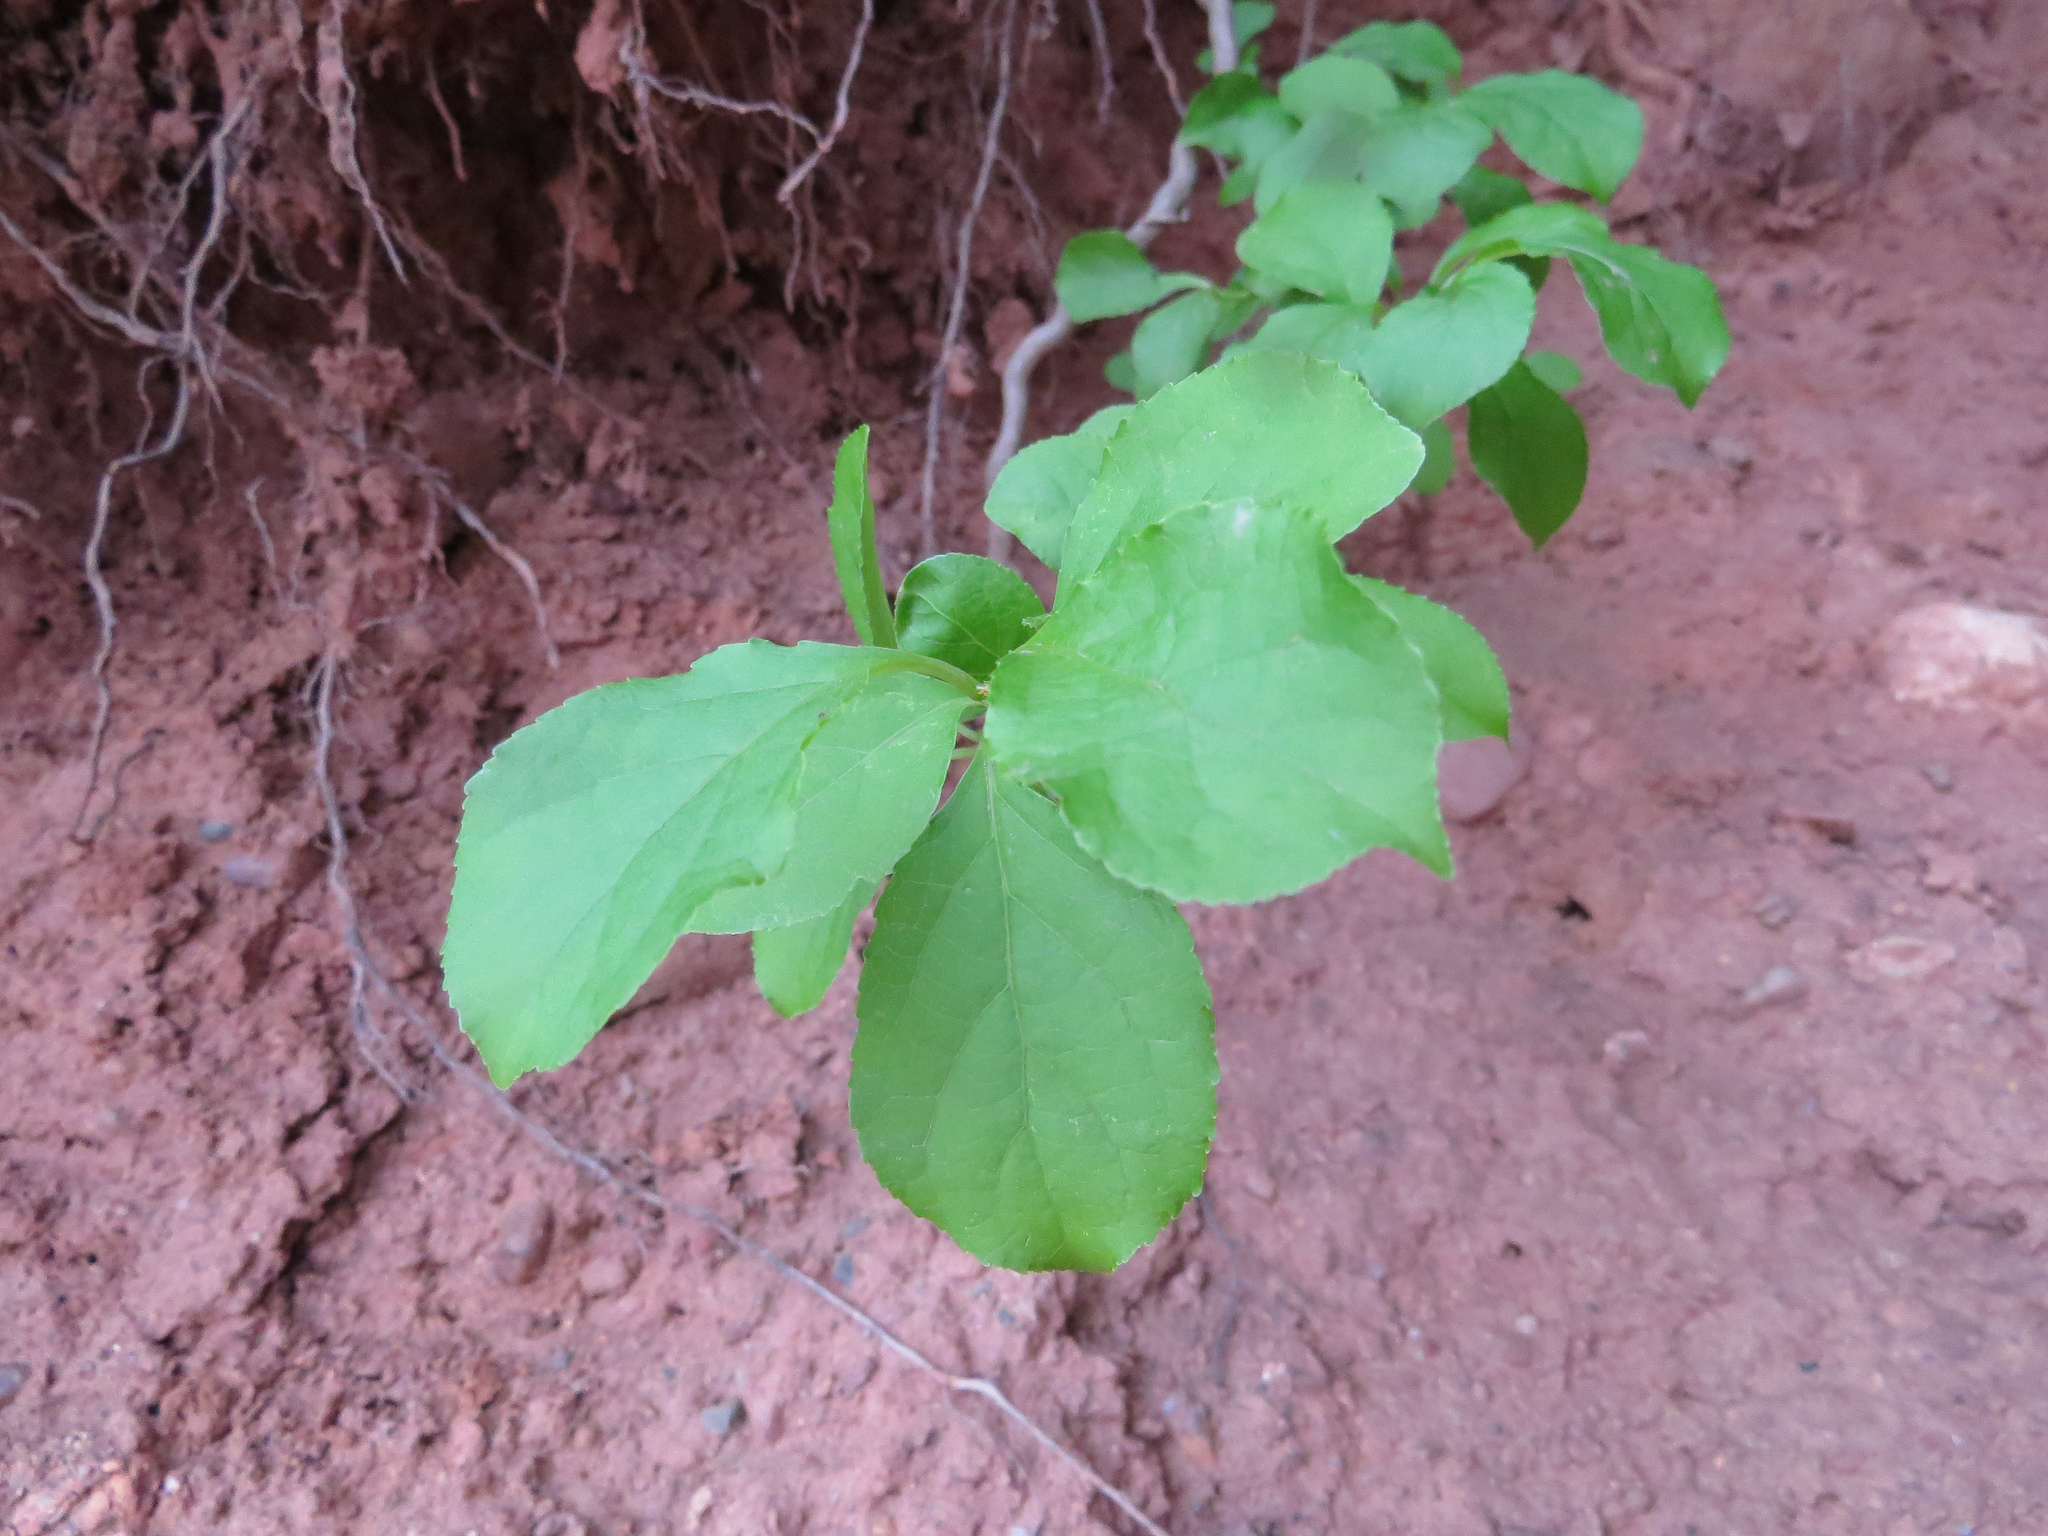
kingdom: Plantae
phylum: Tracheophyta
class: Magnoliopsida
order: Celastrales
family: Celastraceae
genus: Celastrus
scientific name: Celastrus orbiculatus
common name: Oriental bittersweet
